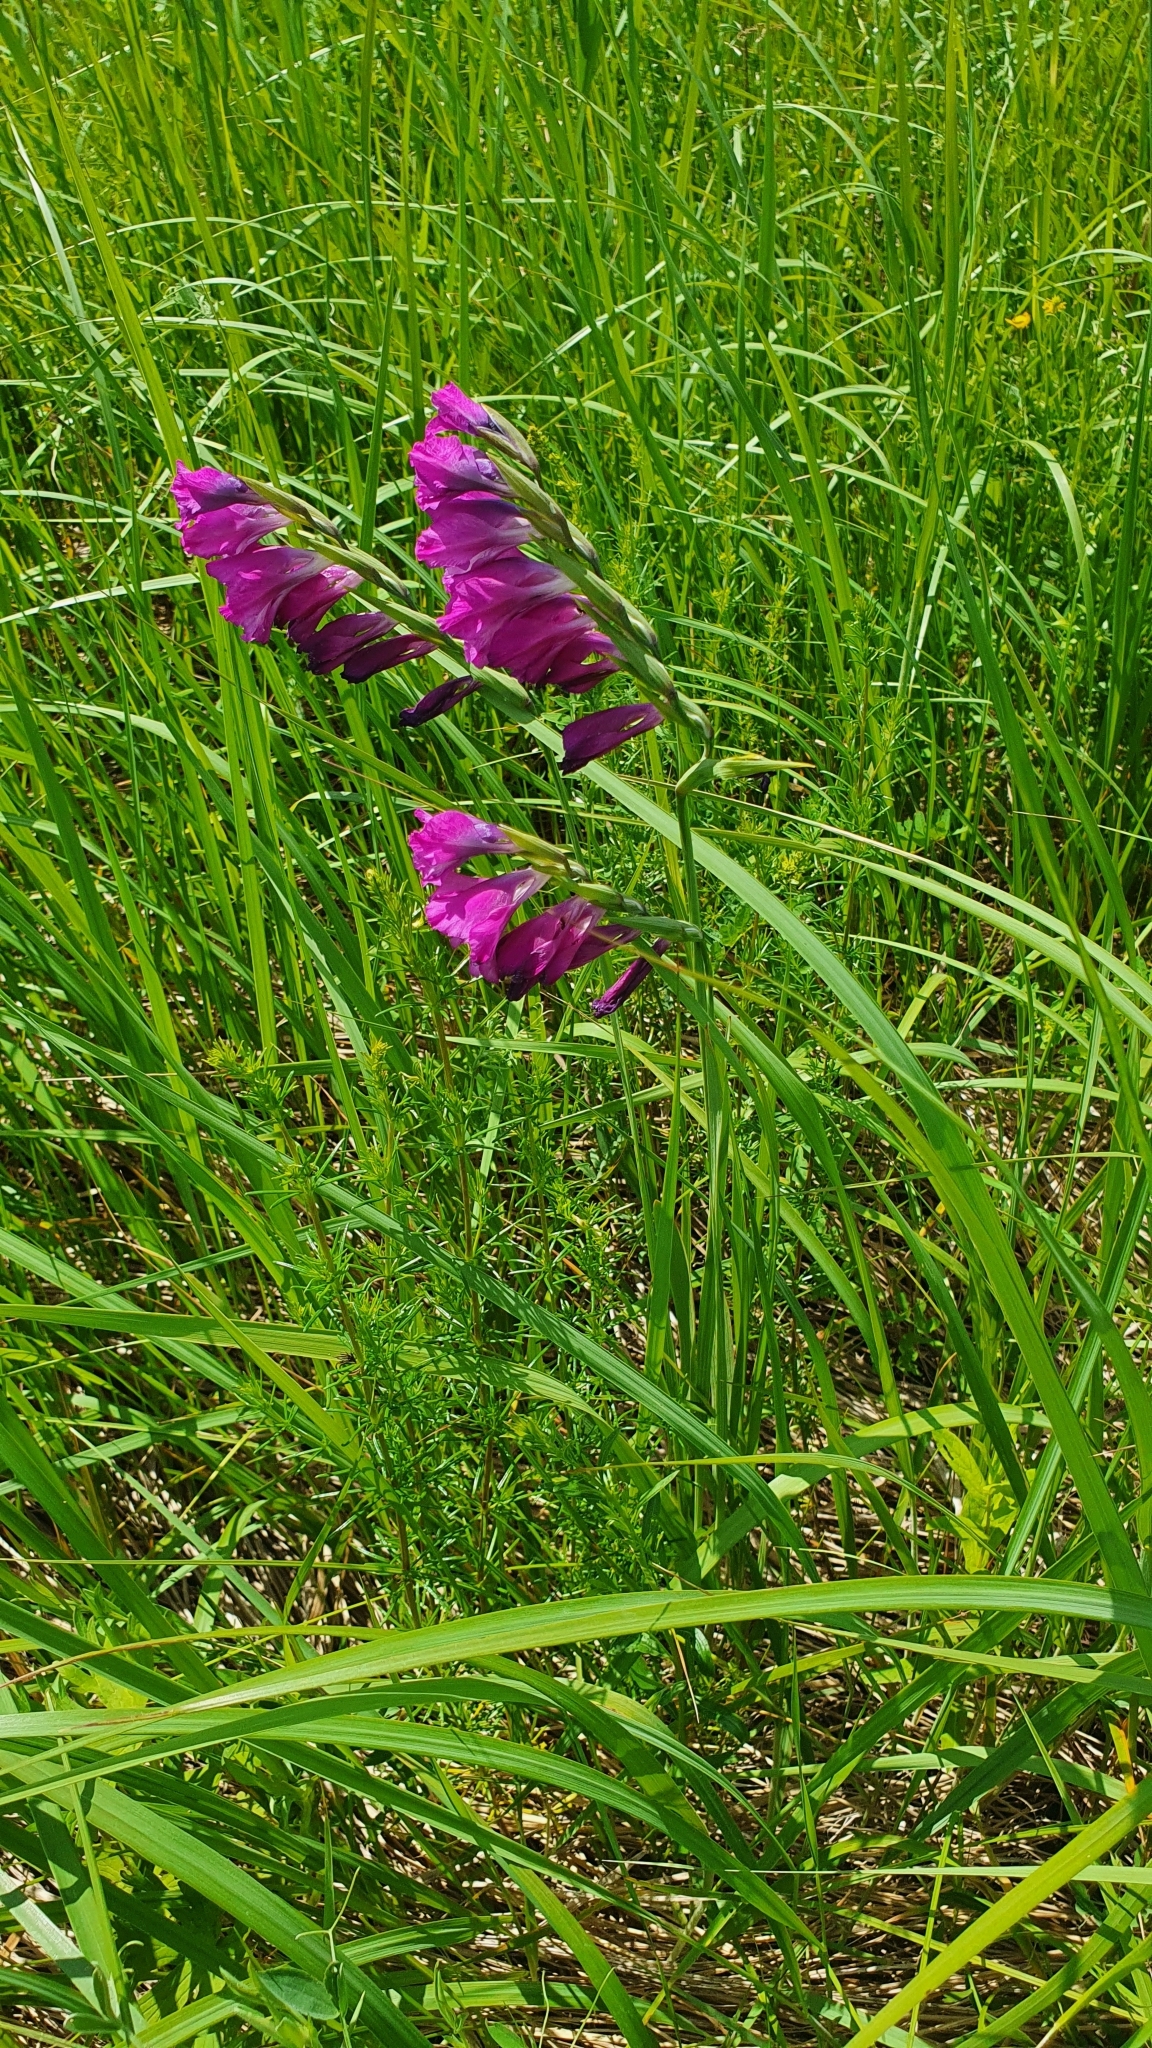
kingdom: Plantae
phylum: Tracheophyta
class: Liliopsida
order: Asparagales
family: Iridaceae
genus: Gladiolus
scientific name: Gladiolus tenuis
